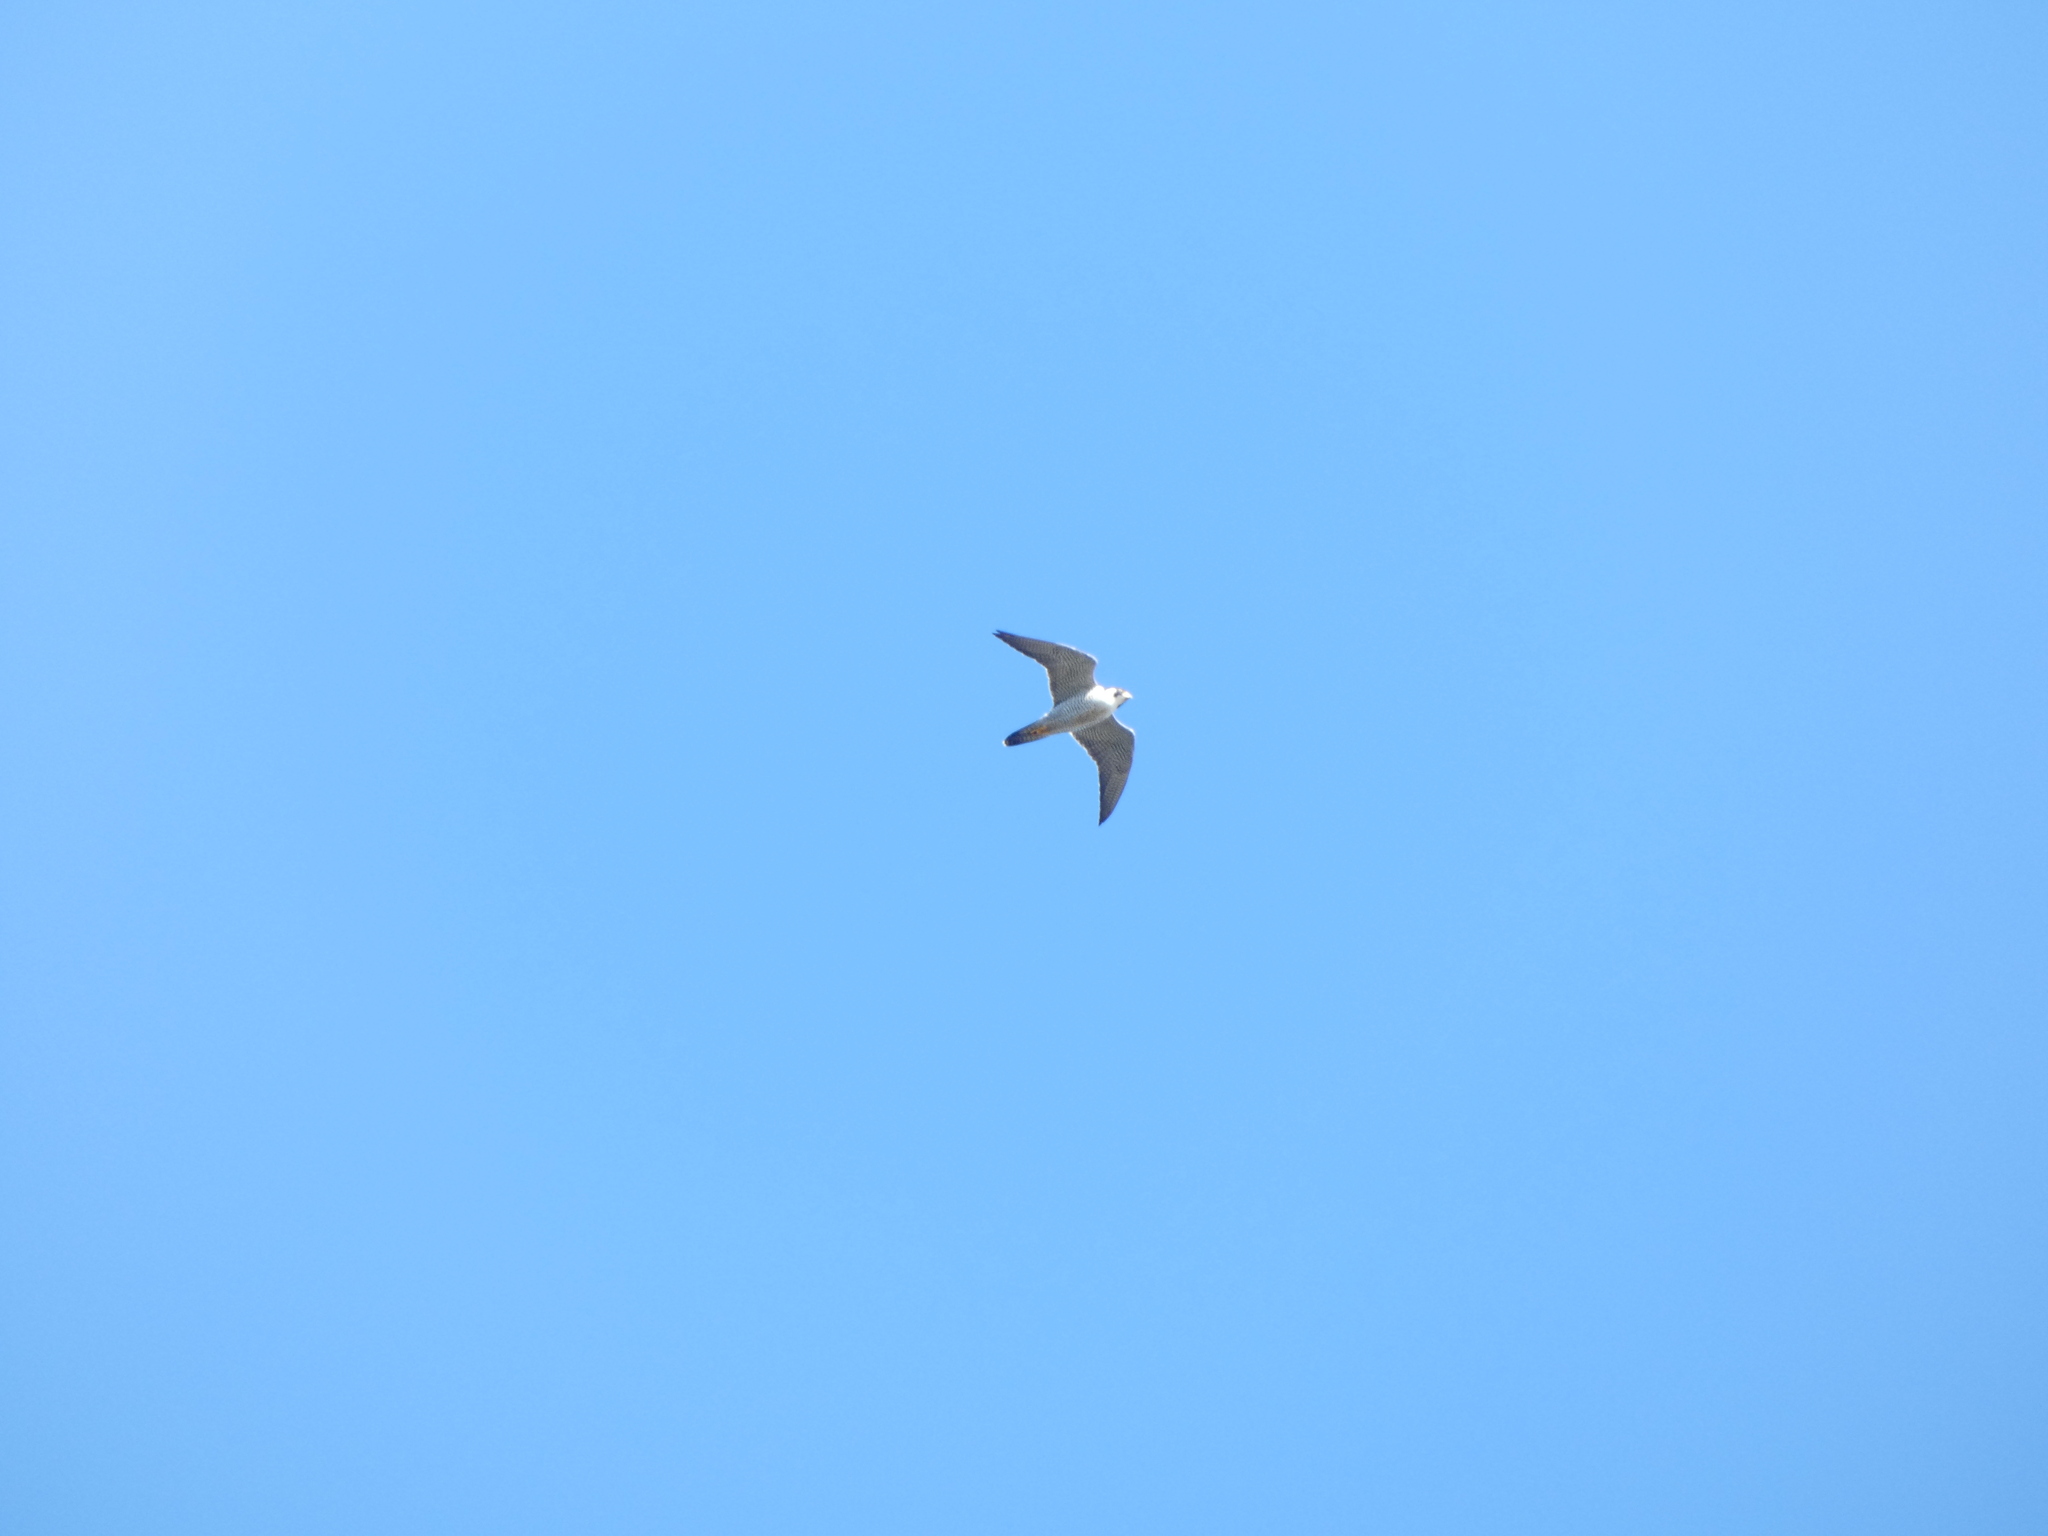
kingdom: Animalia
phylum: Chordata
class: Aves
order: Falconiformes
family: Falconidae
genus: Falco
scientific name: Falco peregrinus
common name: Peregrine falcon
